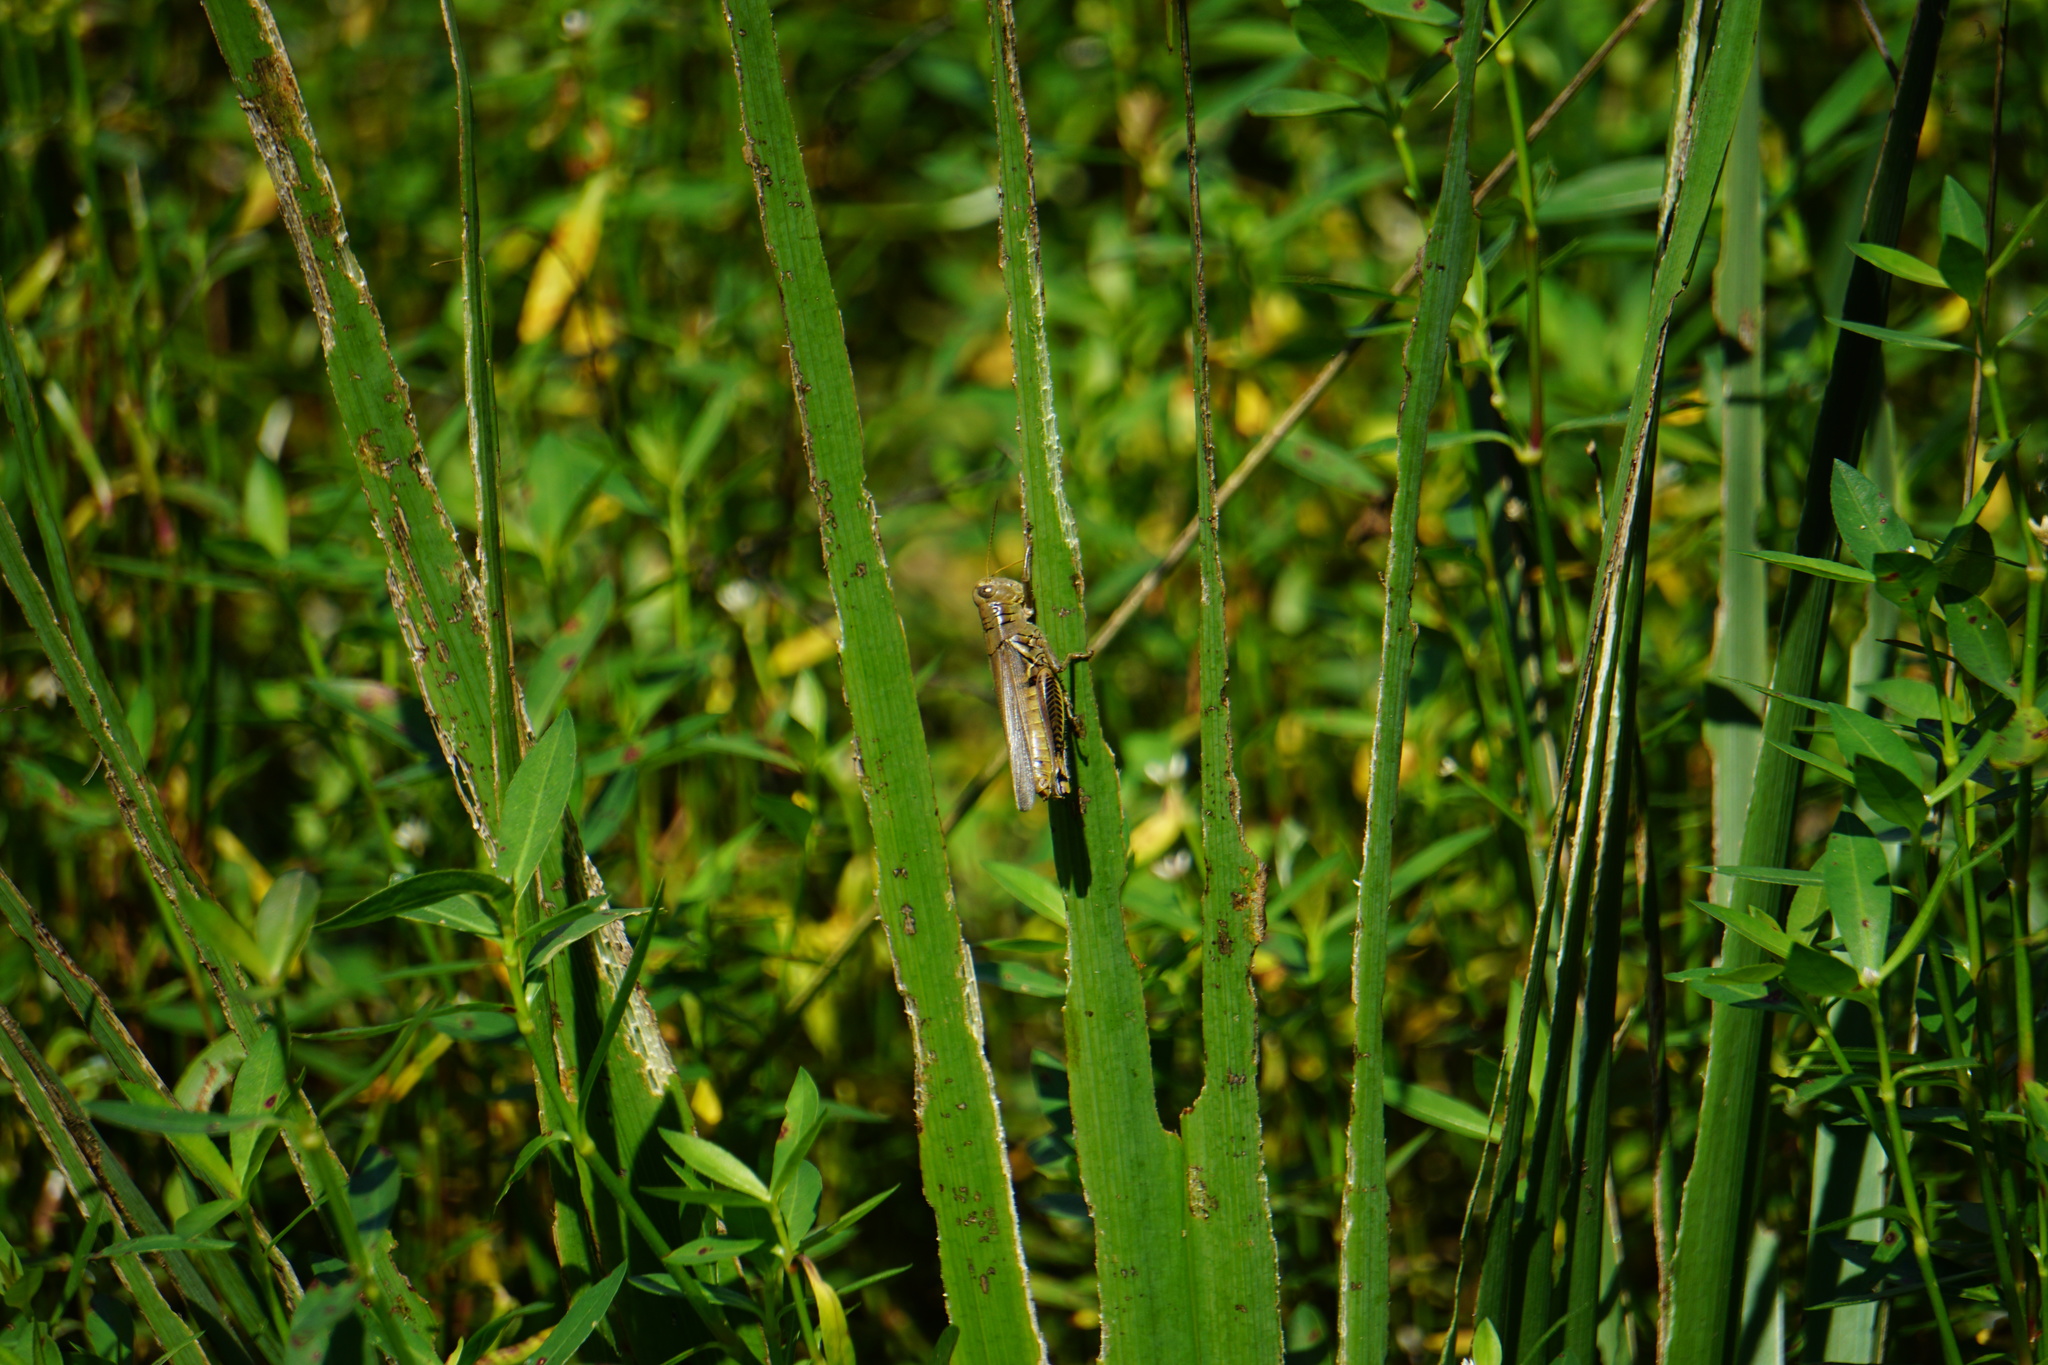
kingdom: Animalia
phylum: Arthropoda
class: Insecta
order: Orthoptera
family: Acrididae
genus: Melanoplus
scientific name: Melanoplus differentialis
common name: Differential grasshopper
